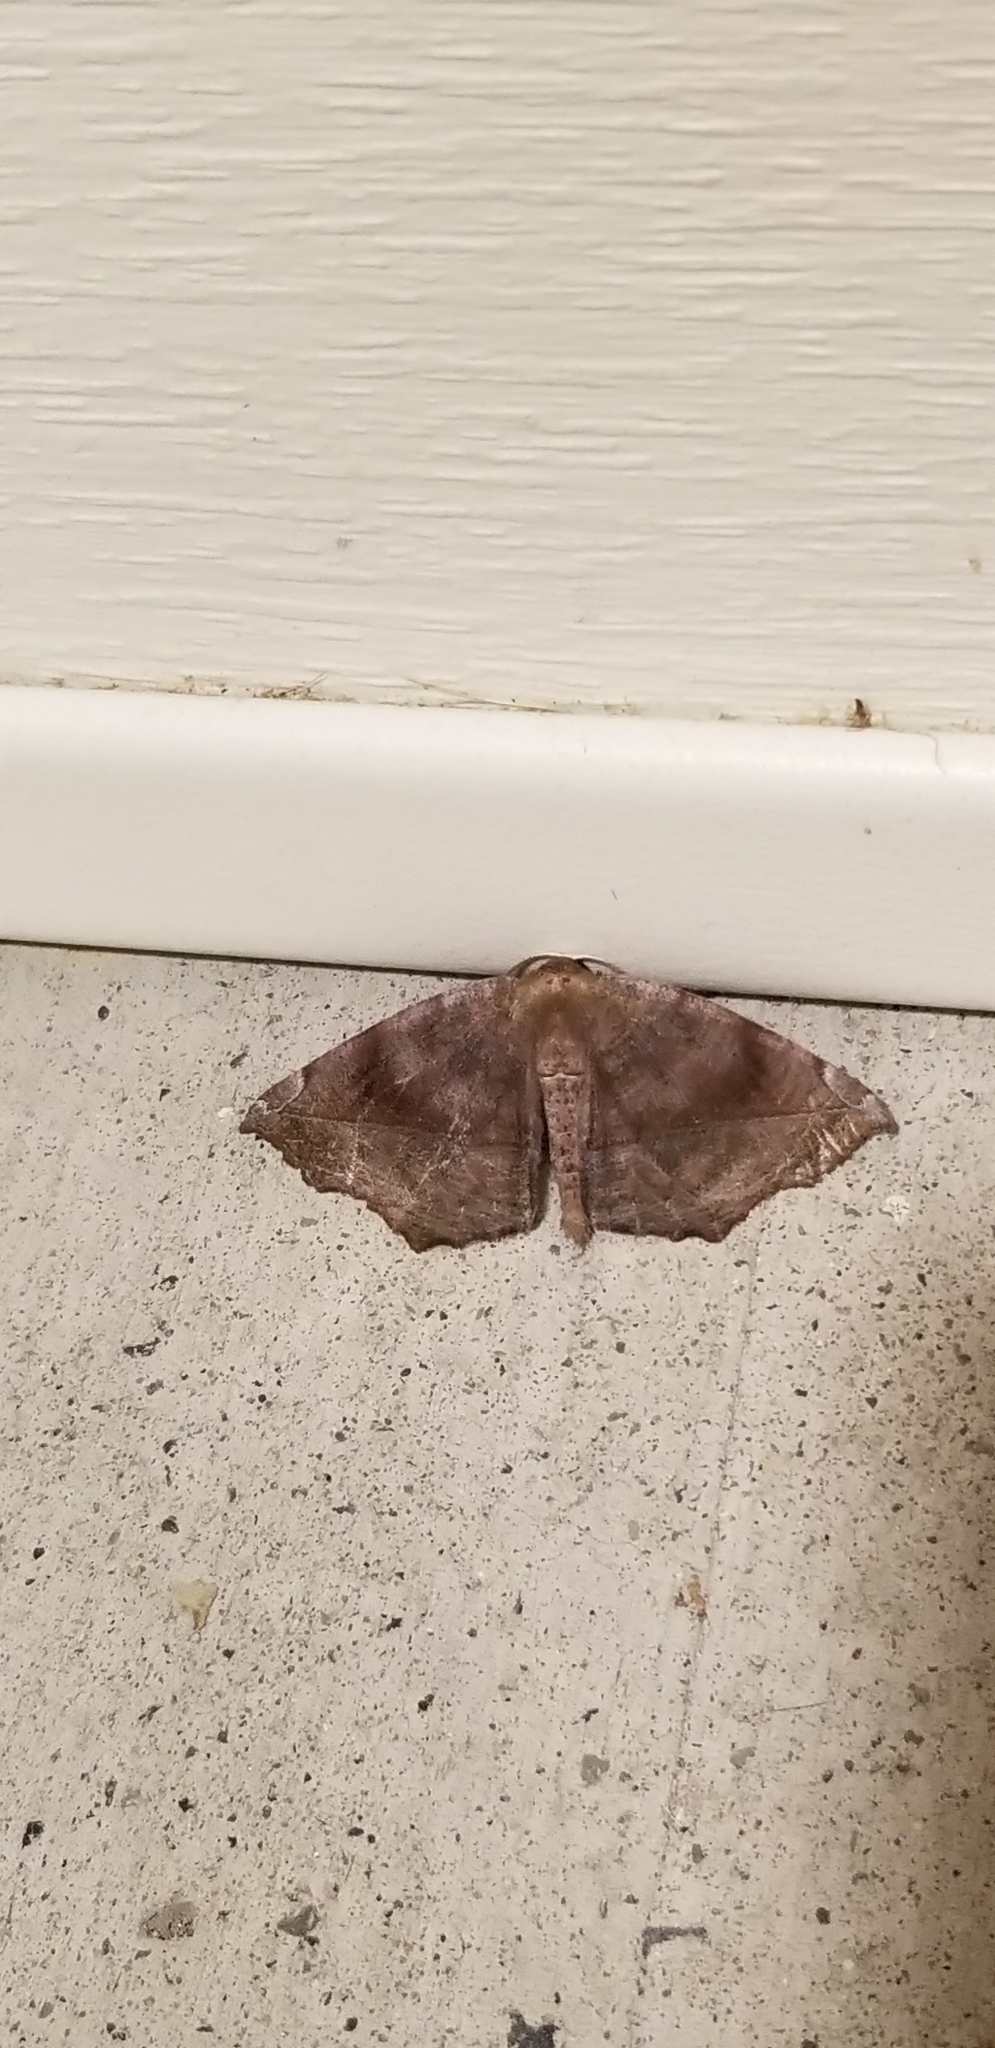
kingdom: Animalia
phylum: Arthropoda
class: Insecta
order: Lepidoptera
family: Geometridae
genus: Eutrapela
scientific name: Eutrapela clemataria
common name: Curved-toothed geometer
